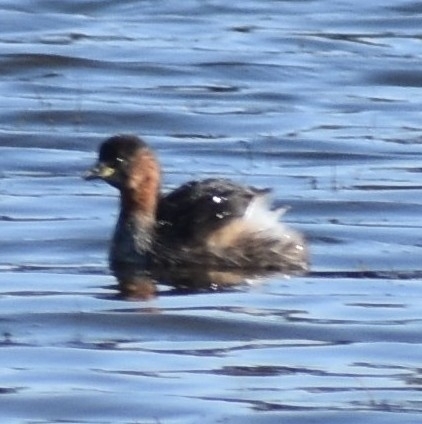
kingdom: Animalia
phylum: Chordata
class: Aves
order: Podicipediformes
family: Podicipedidae
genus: Tachybaptus
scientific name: Tachybaptus ruficollis
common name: Little grebe
